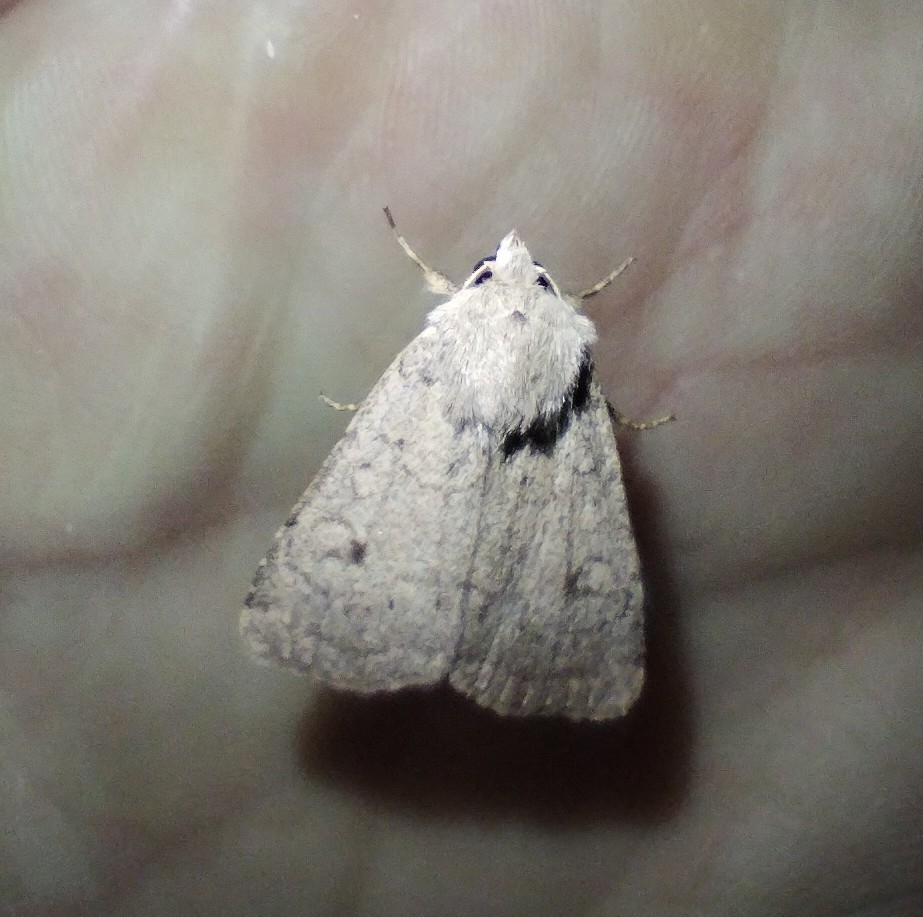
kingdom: Animalia
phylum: Arthropoda
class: Insecta
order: Lepidoptera
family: Noctuidae
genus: Xestia
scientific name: Xestia castanea
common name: Neglected rustic
